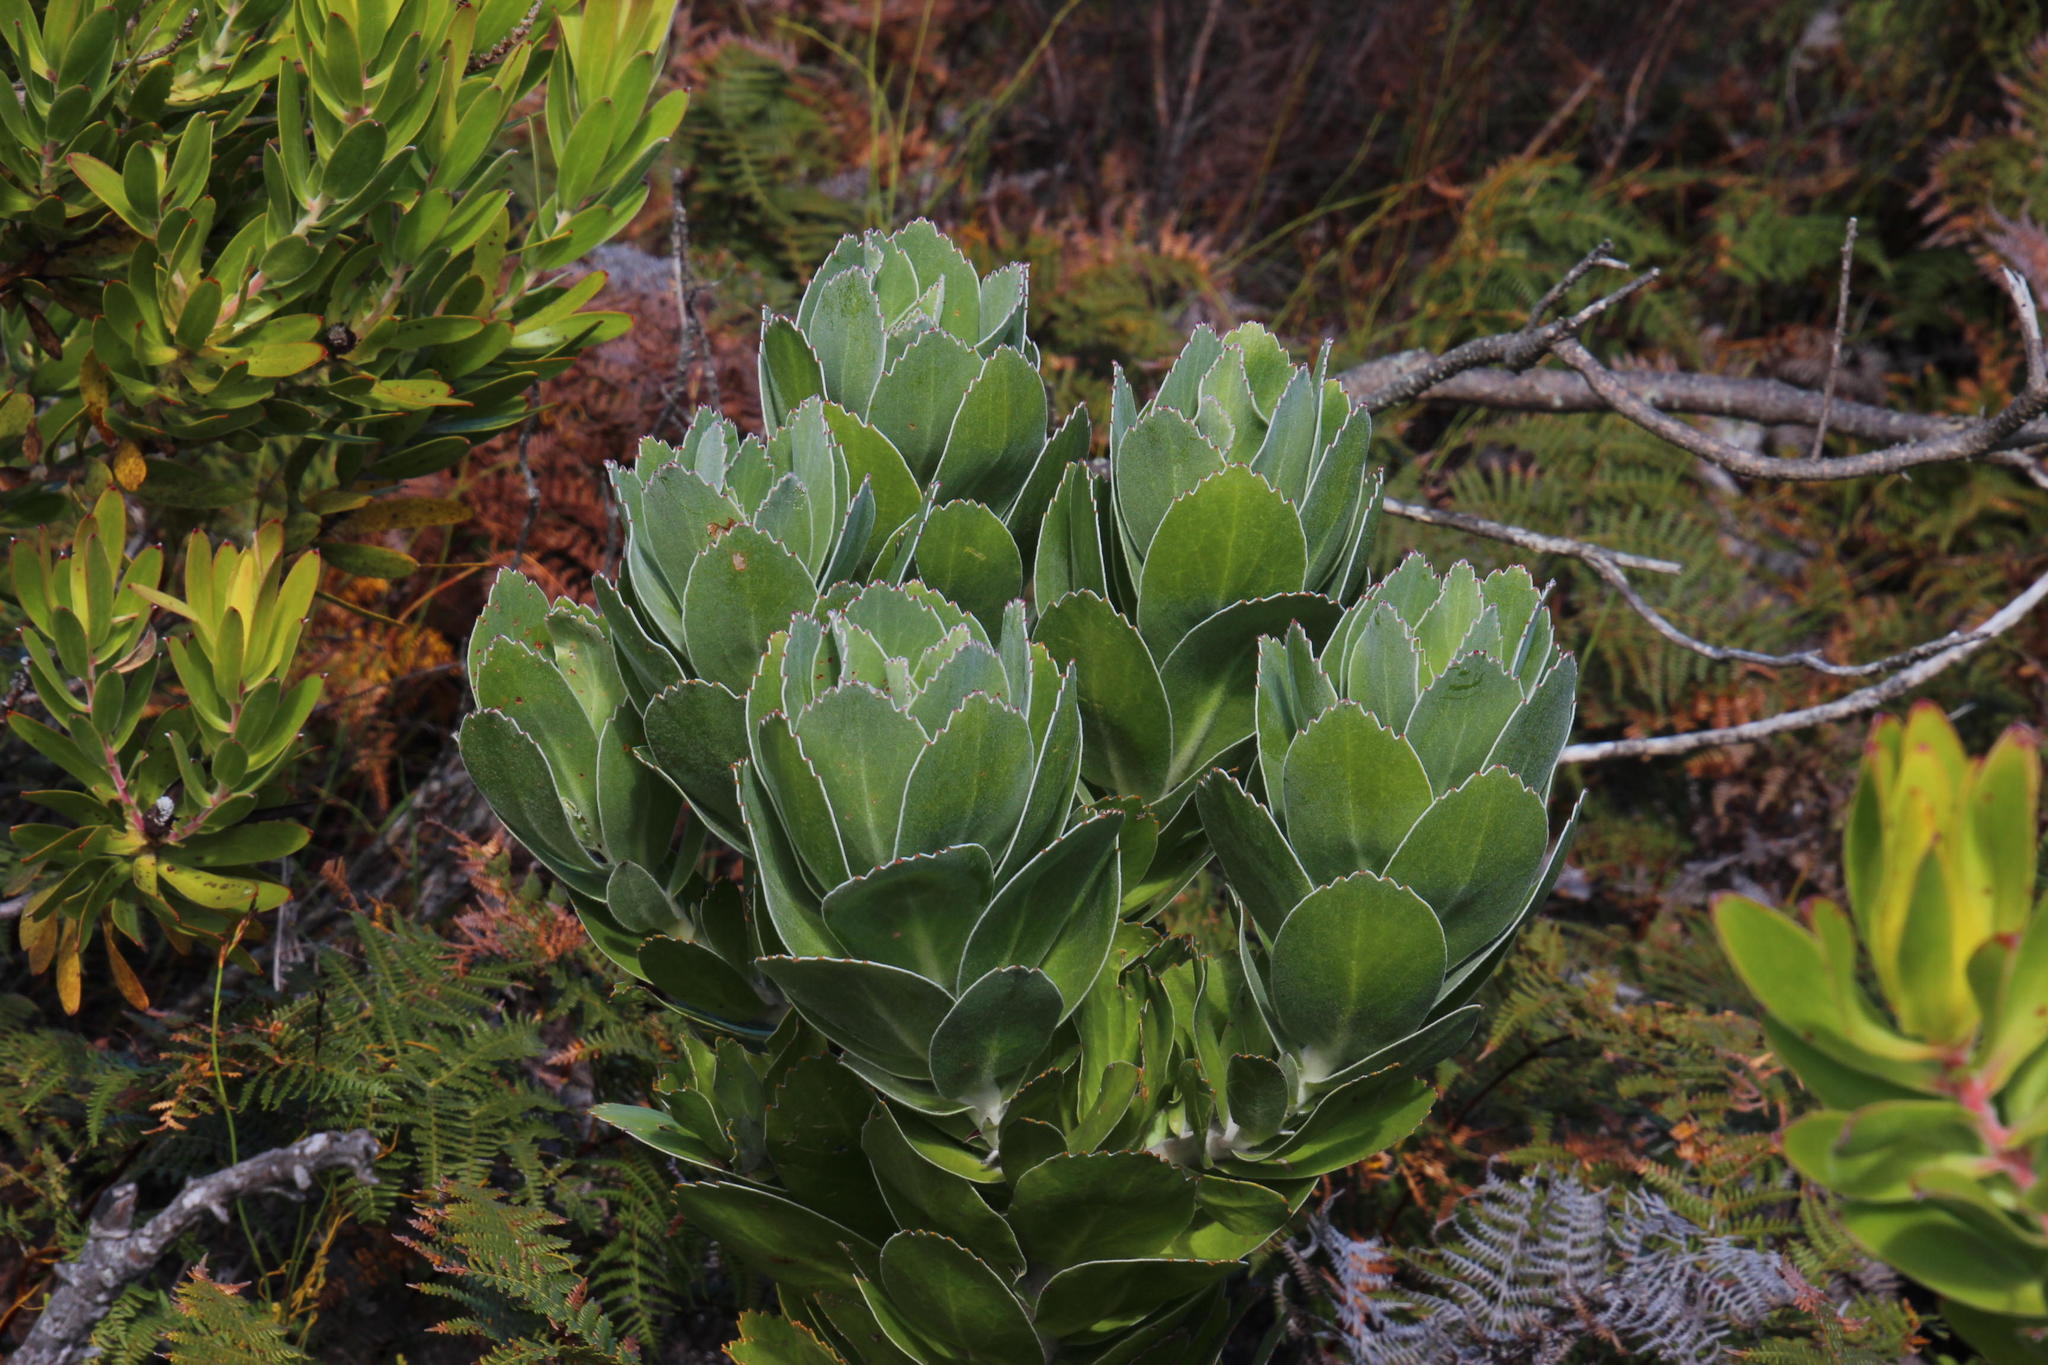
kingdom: Plantae
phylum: Tracheophyta
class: Magnoliopsida
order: Proteales
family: Proteaceae
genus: Leucospermum
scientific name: Leucospermum conocarpodendron
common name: Tree pincushion
